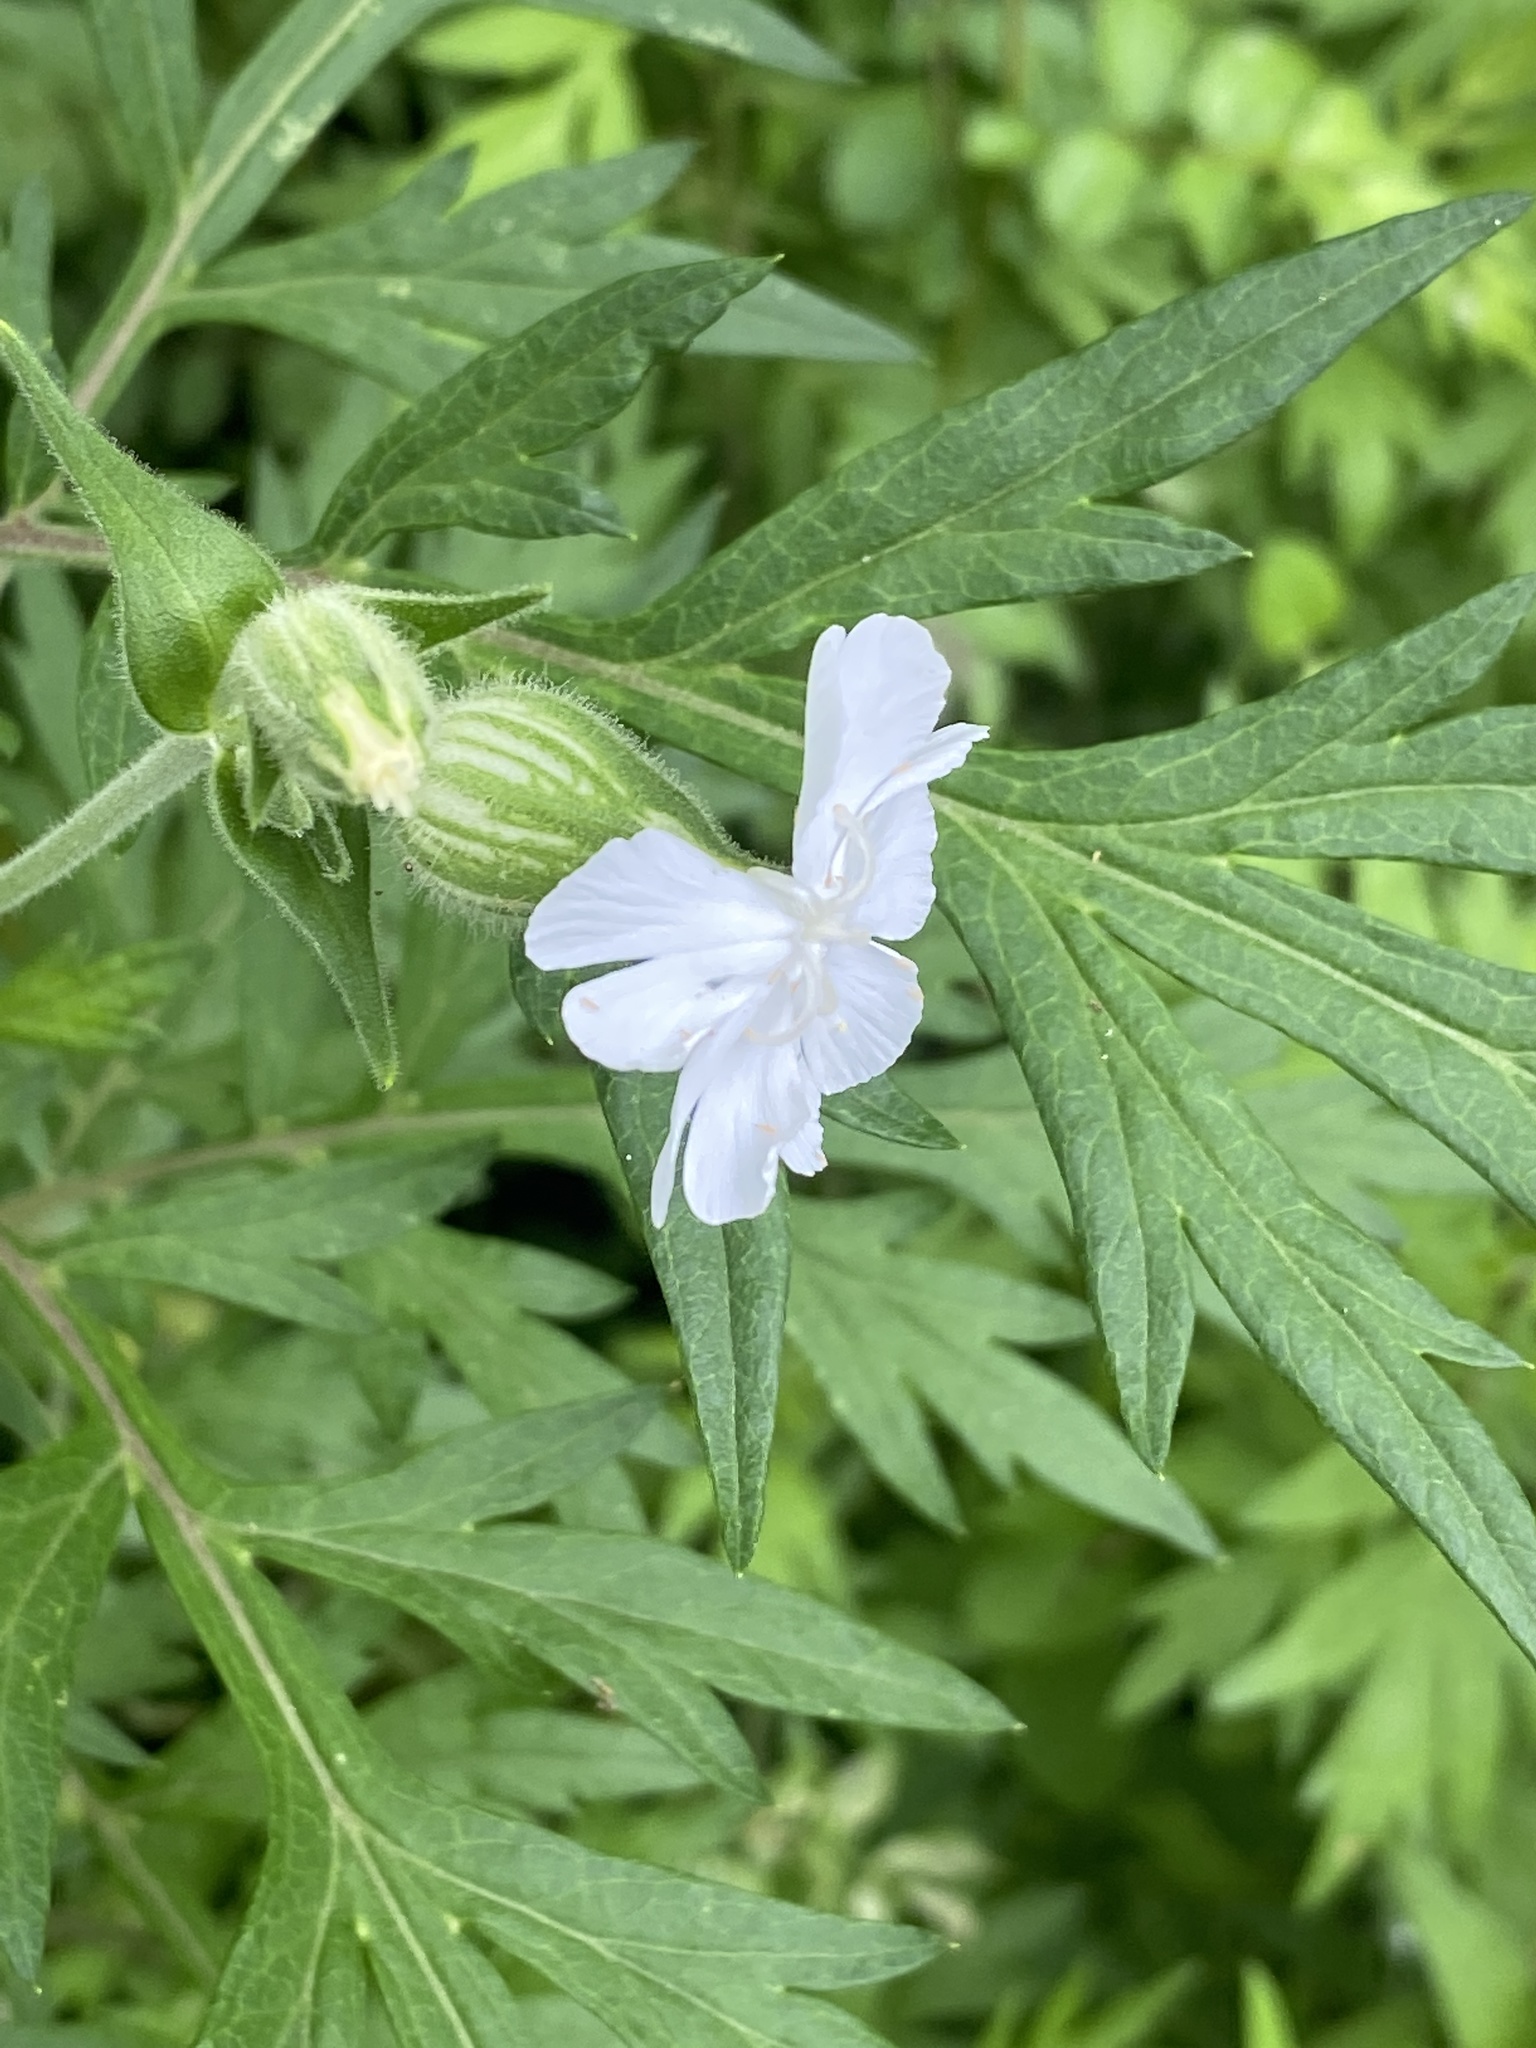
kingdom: Plantae
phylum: Tracheophyta
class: Magnoliopsida
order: Caryophyllales
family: Caryophyllaceae
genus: Silene
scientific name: Silene latifolia
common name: White campion
